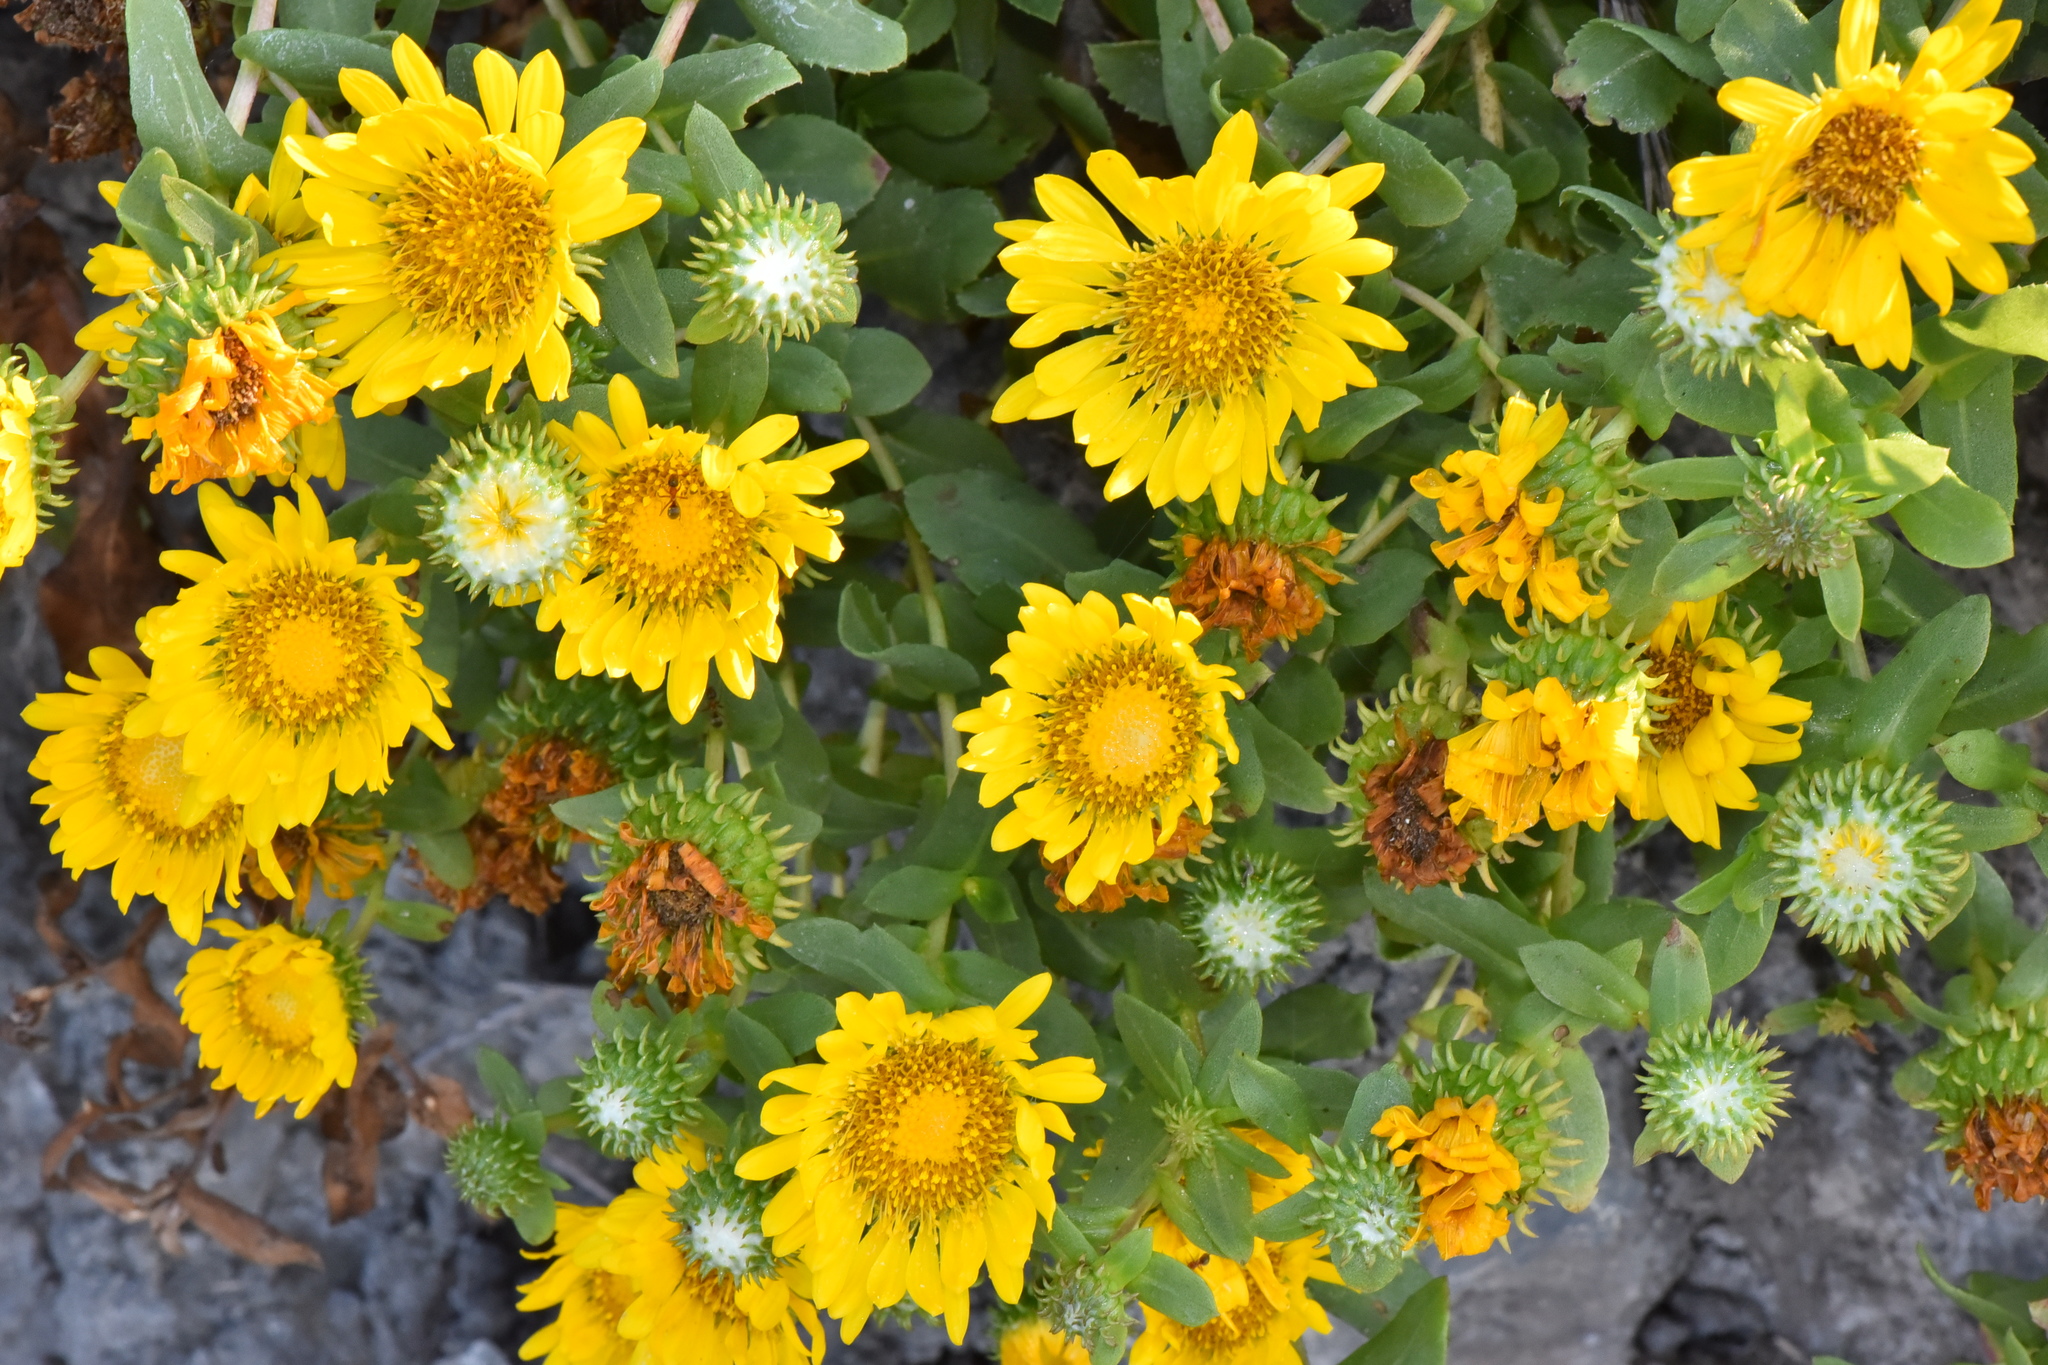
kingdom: Plantae
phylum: Tracheophyta
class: Magnoliopsida
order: Asterales
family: Asteraceae
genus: Grindelia
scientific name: Grindelia hirsutula
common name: Hairy gumweed
